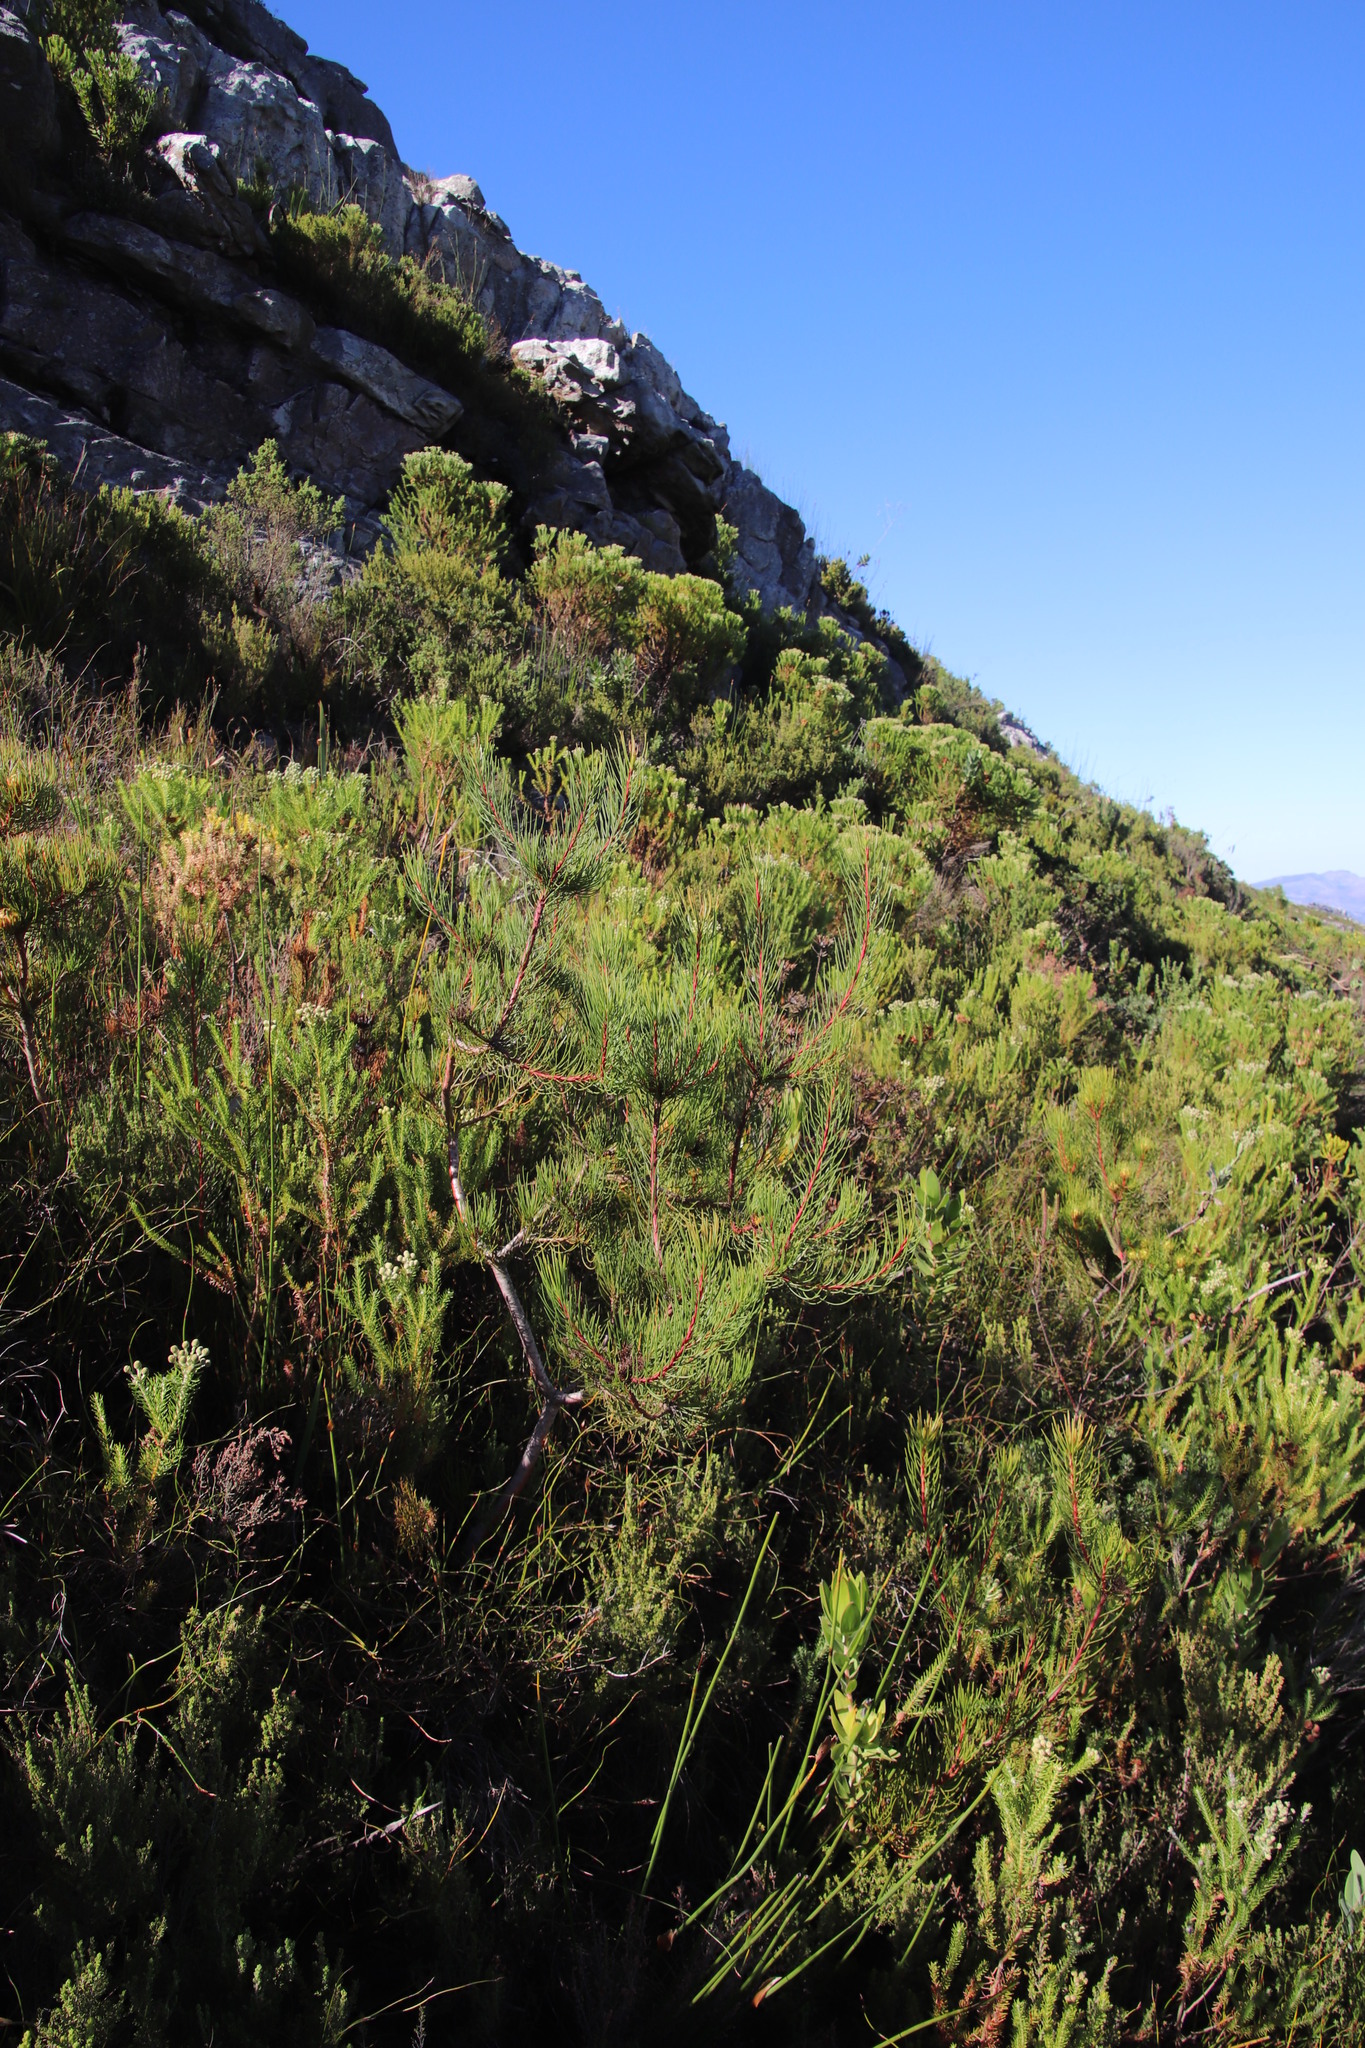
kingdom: Plantae
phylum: Tracheophyta
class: Magnoliopsida
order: Proteales
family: Proteaceae
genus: Aulax
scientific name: Aulax cancellata
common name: Channel-leaf featherbush
